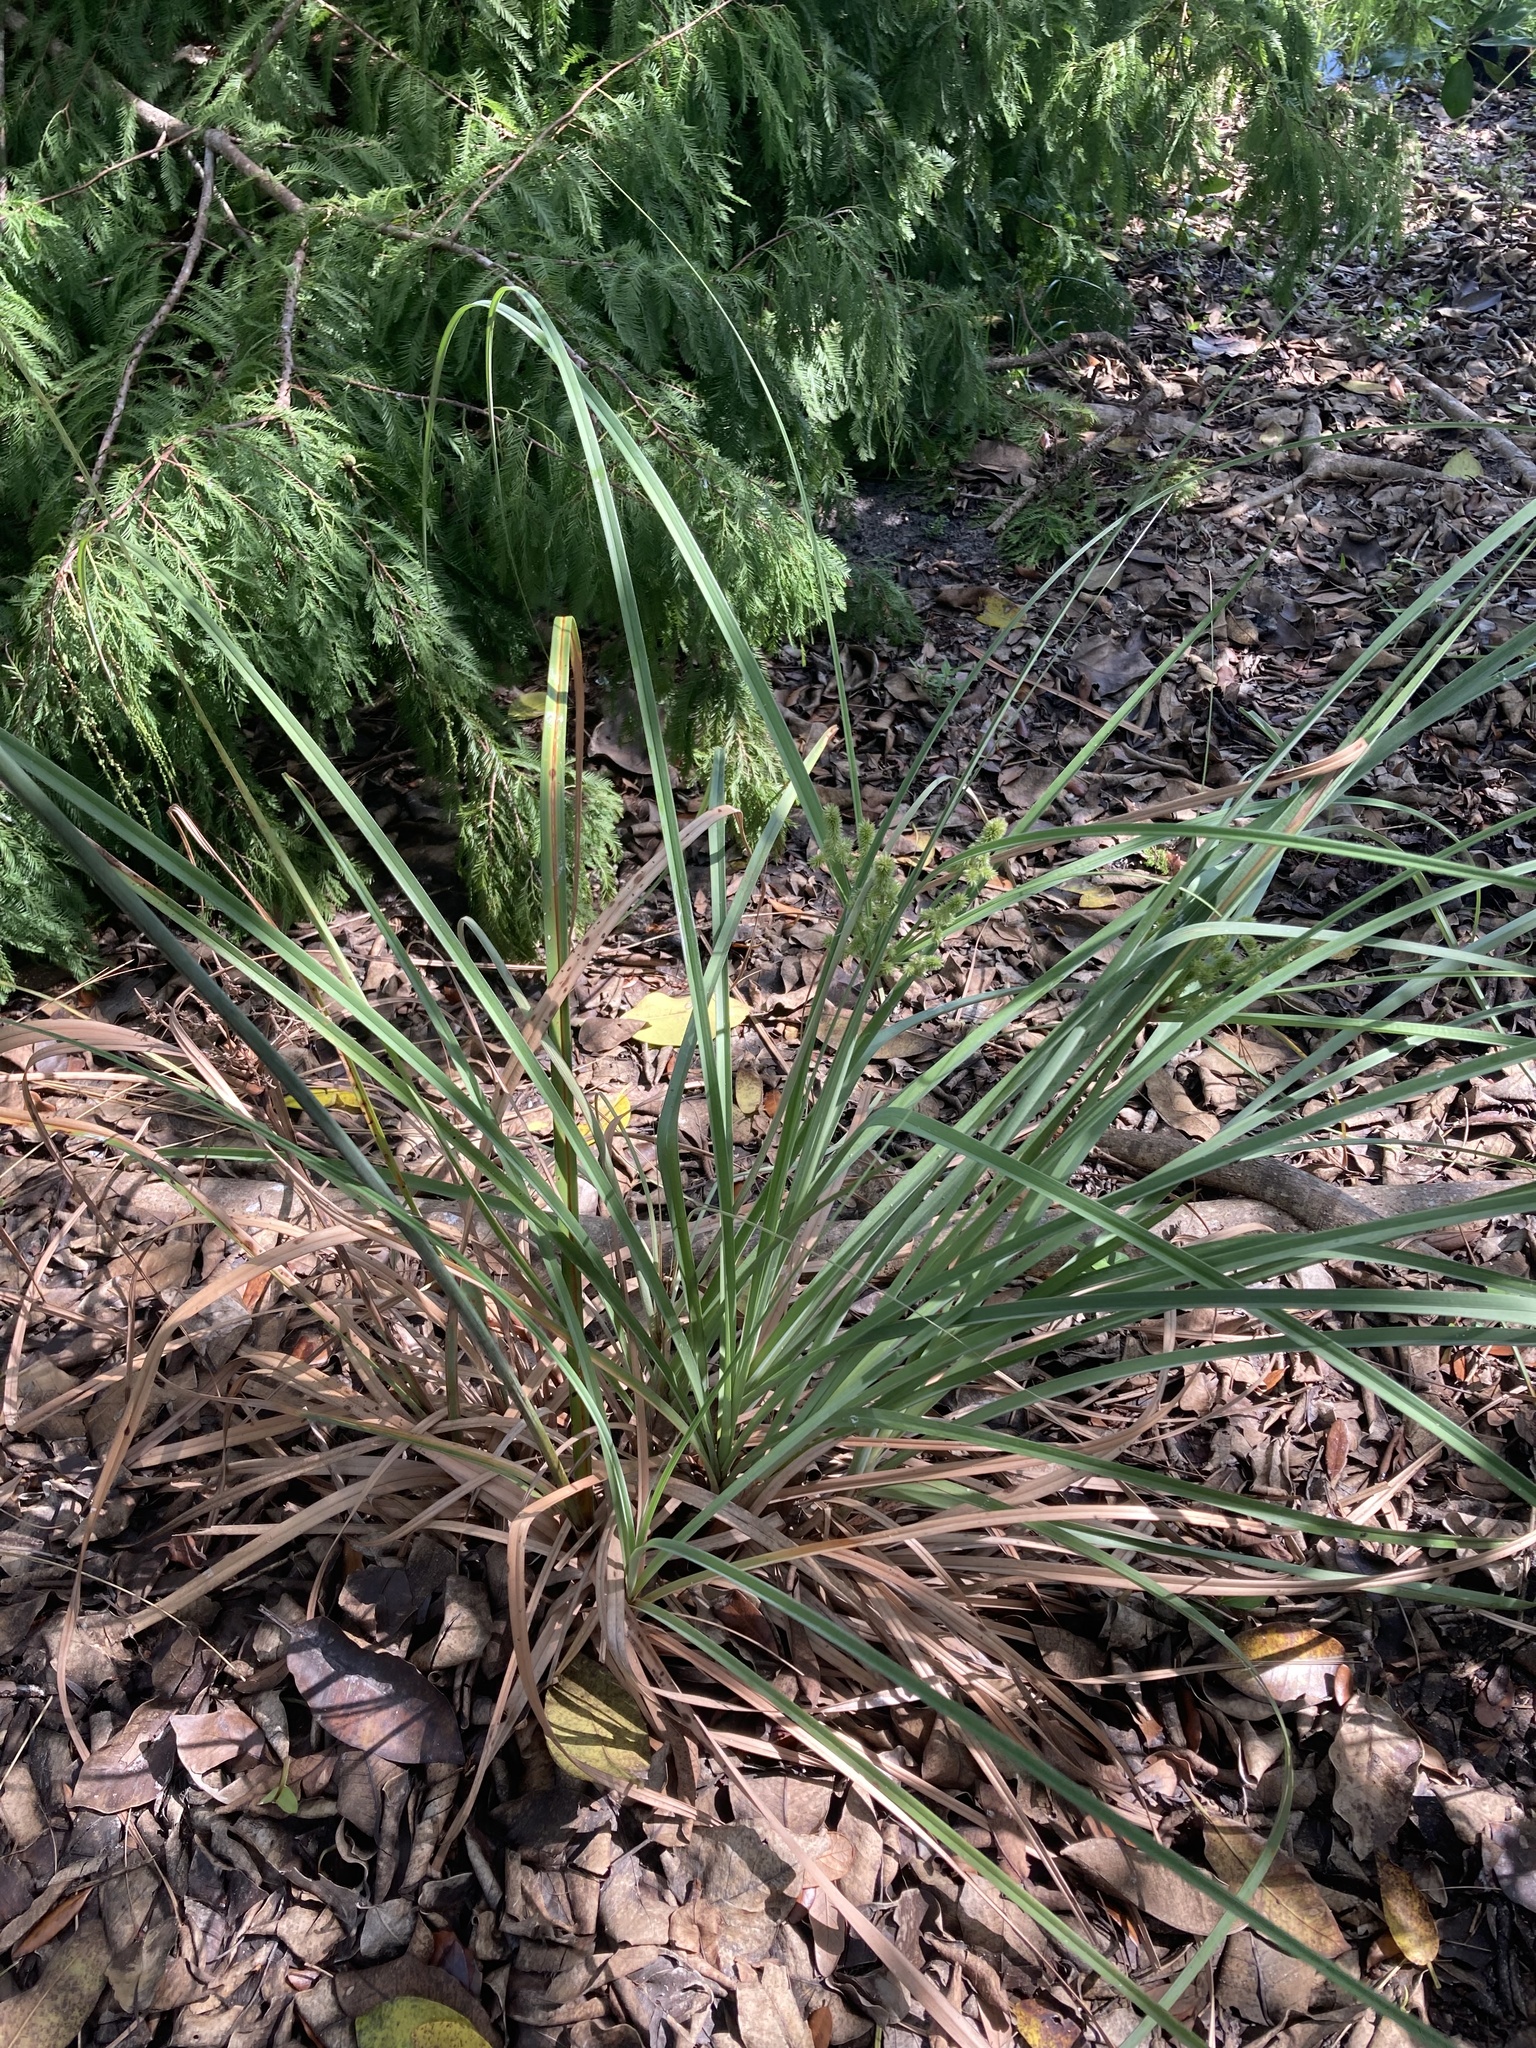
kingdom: Plantae
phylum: Tracheophyta
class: Liliopsida
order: Poales
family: Cyperaceae
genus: Cyperus
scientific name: Cyperus ligularis
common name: Swamp flat sedge
